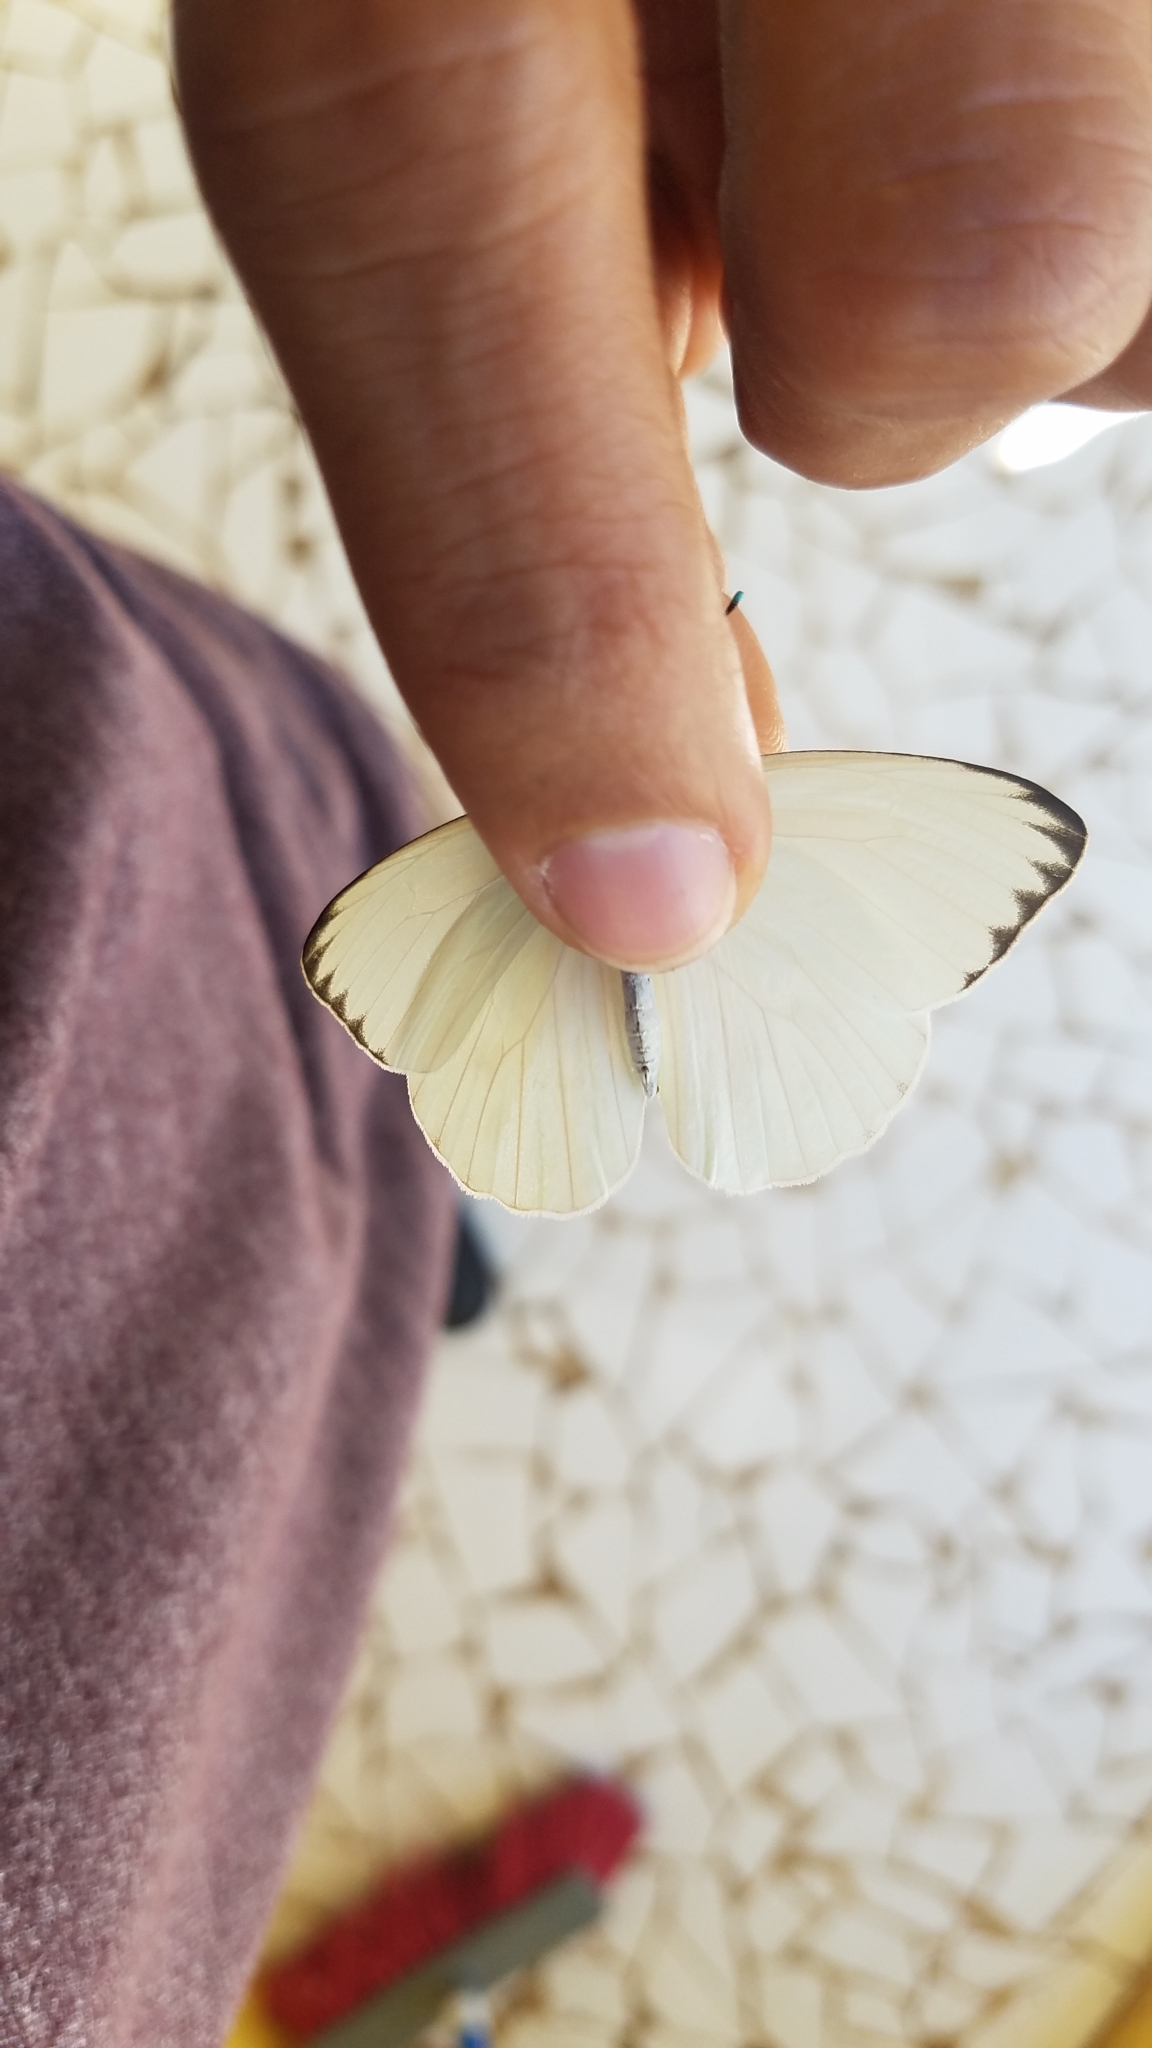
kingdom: Animalia
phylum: Arthropoda
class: Insecta
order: Lepidoptera
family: Pieridae
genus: Ascia
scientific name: Ascia monuste
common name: Great southern white
